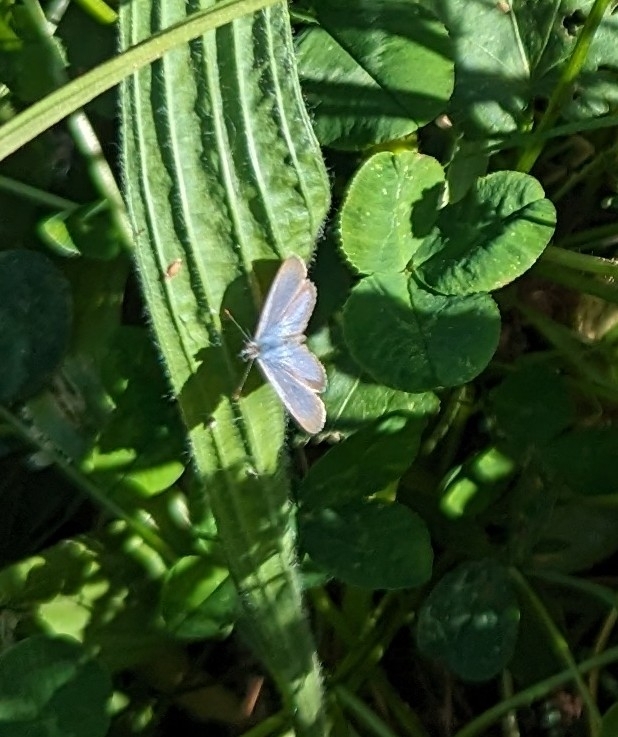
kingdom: Animalia
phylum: Arthropoda
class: Insecta
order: Lepidoptera
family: Lycaenidae
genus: Zizina
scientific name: Zizina labradus
